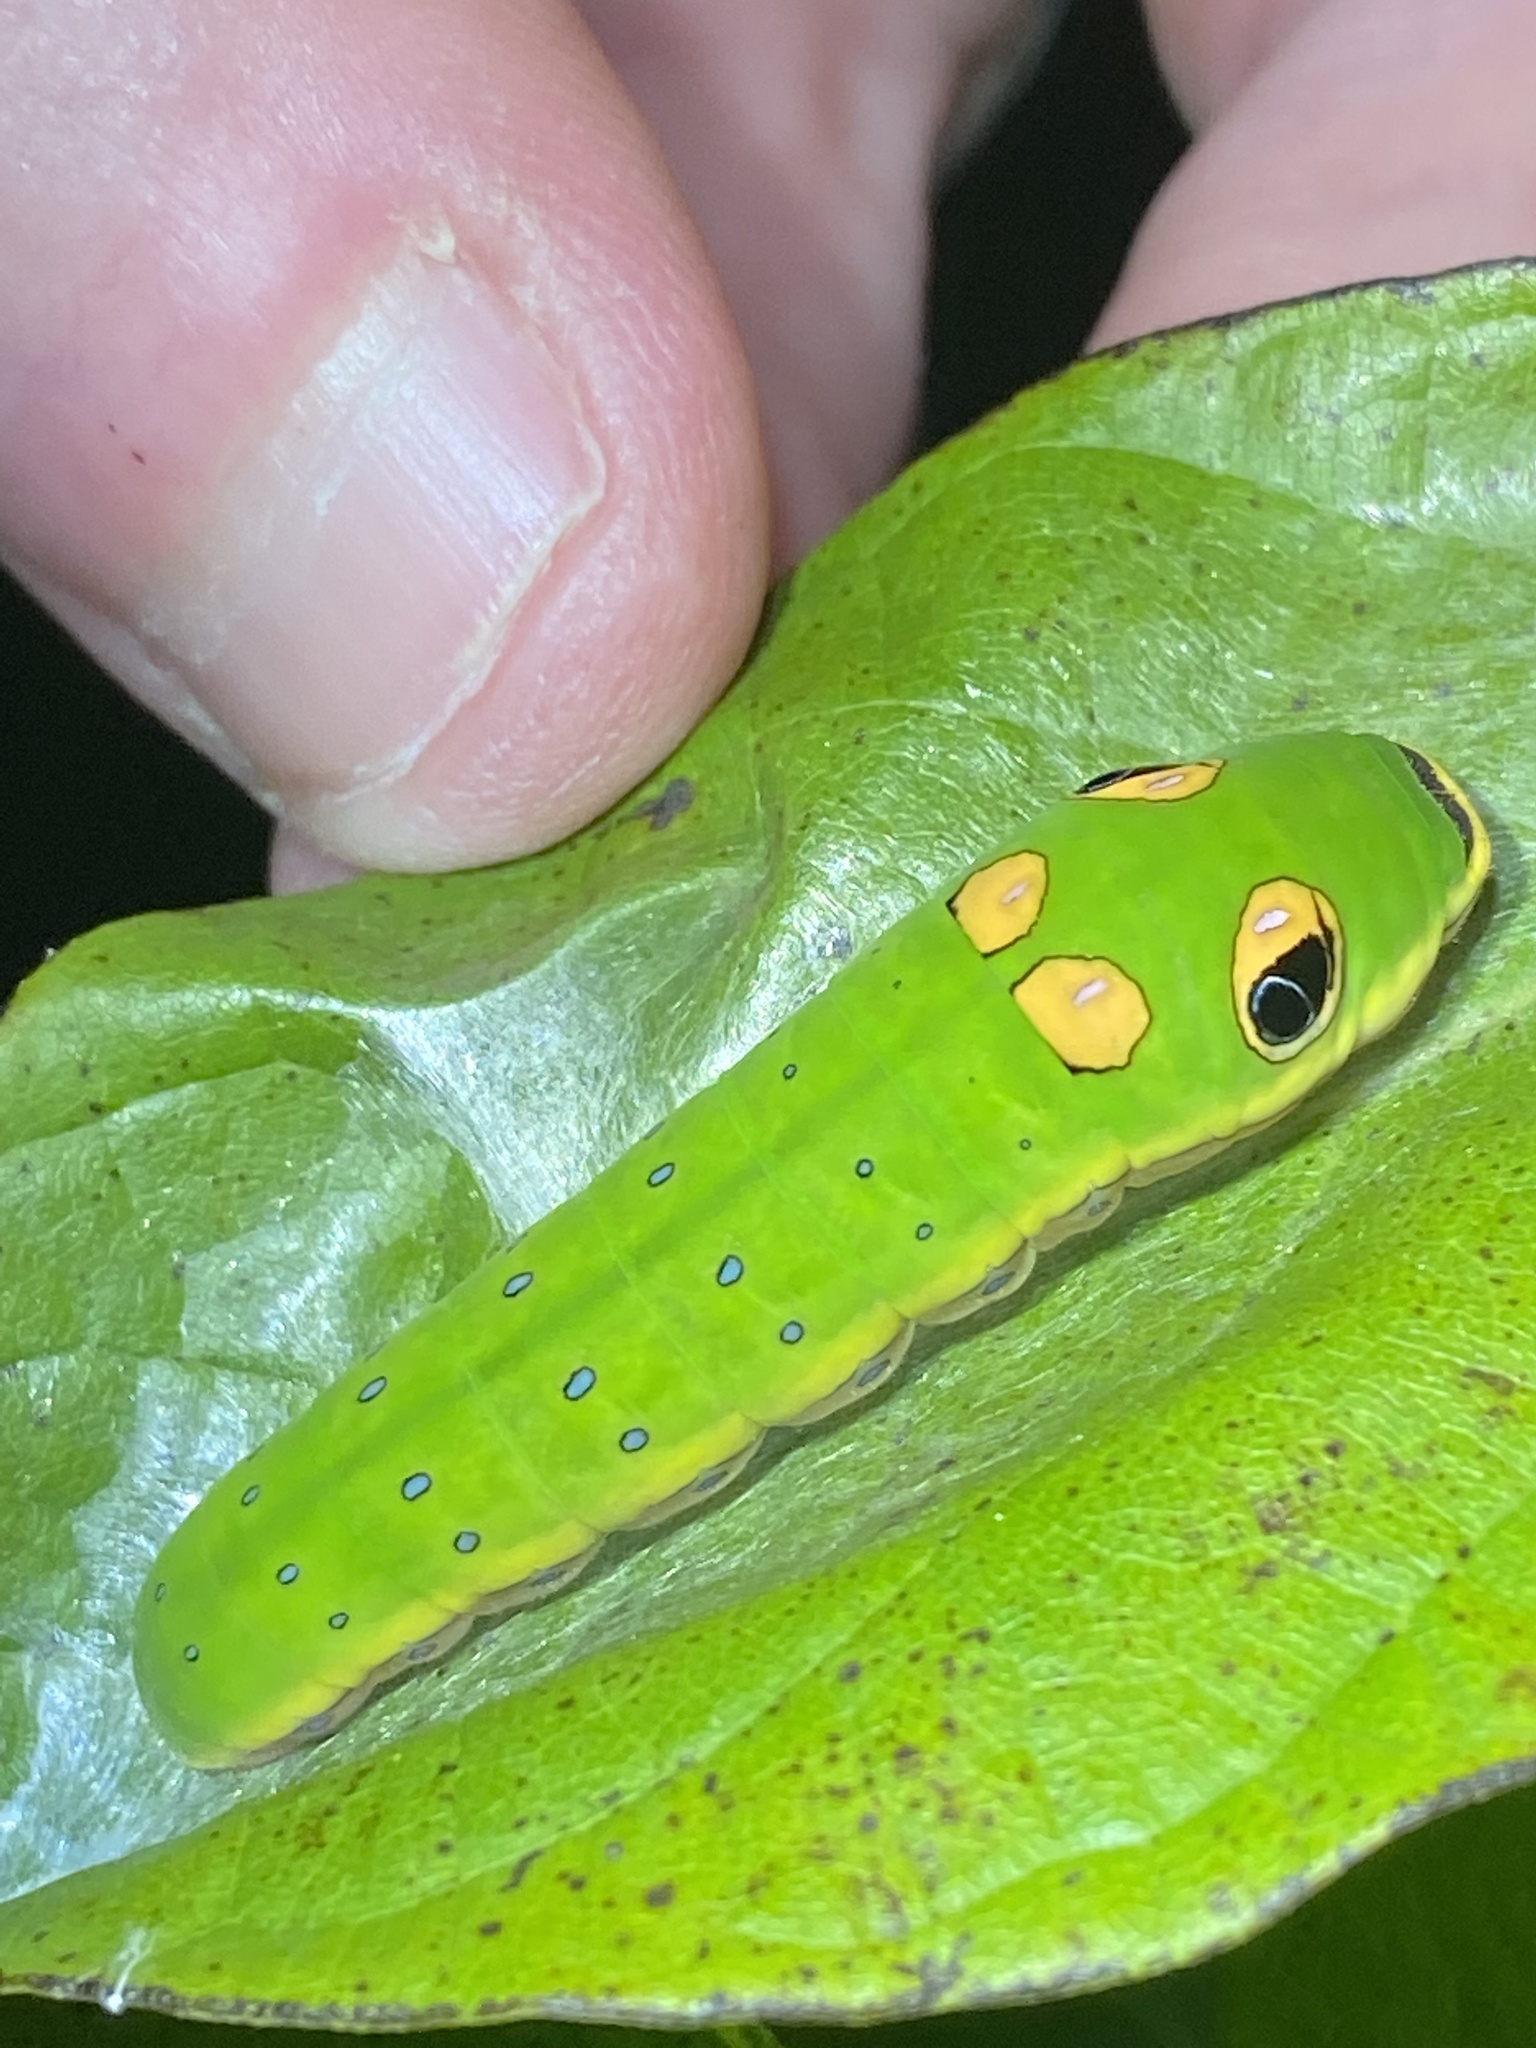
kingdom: Animalia
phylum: Arthropoda
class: Insecta
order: Lepidoptera
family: Papilionidae
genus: Papilio
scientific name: Papilio troilus
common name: Spicebush swallowtail
